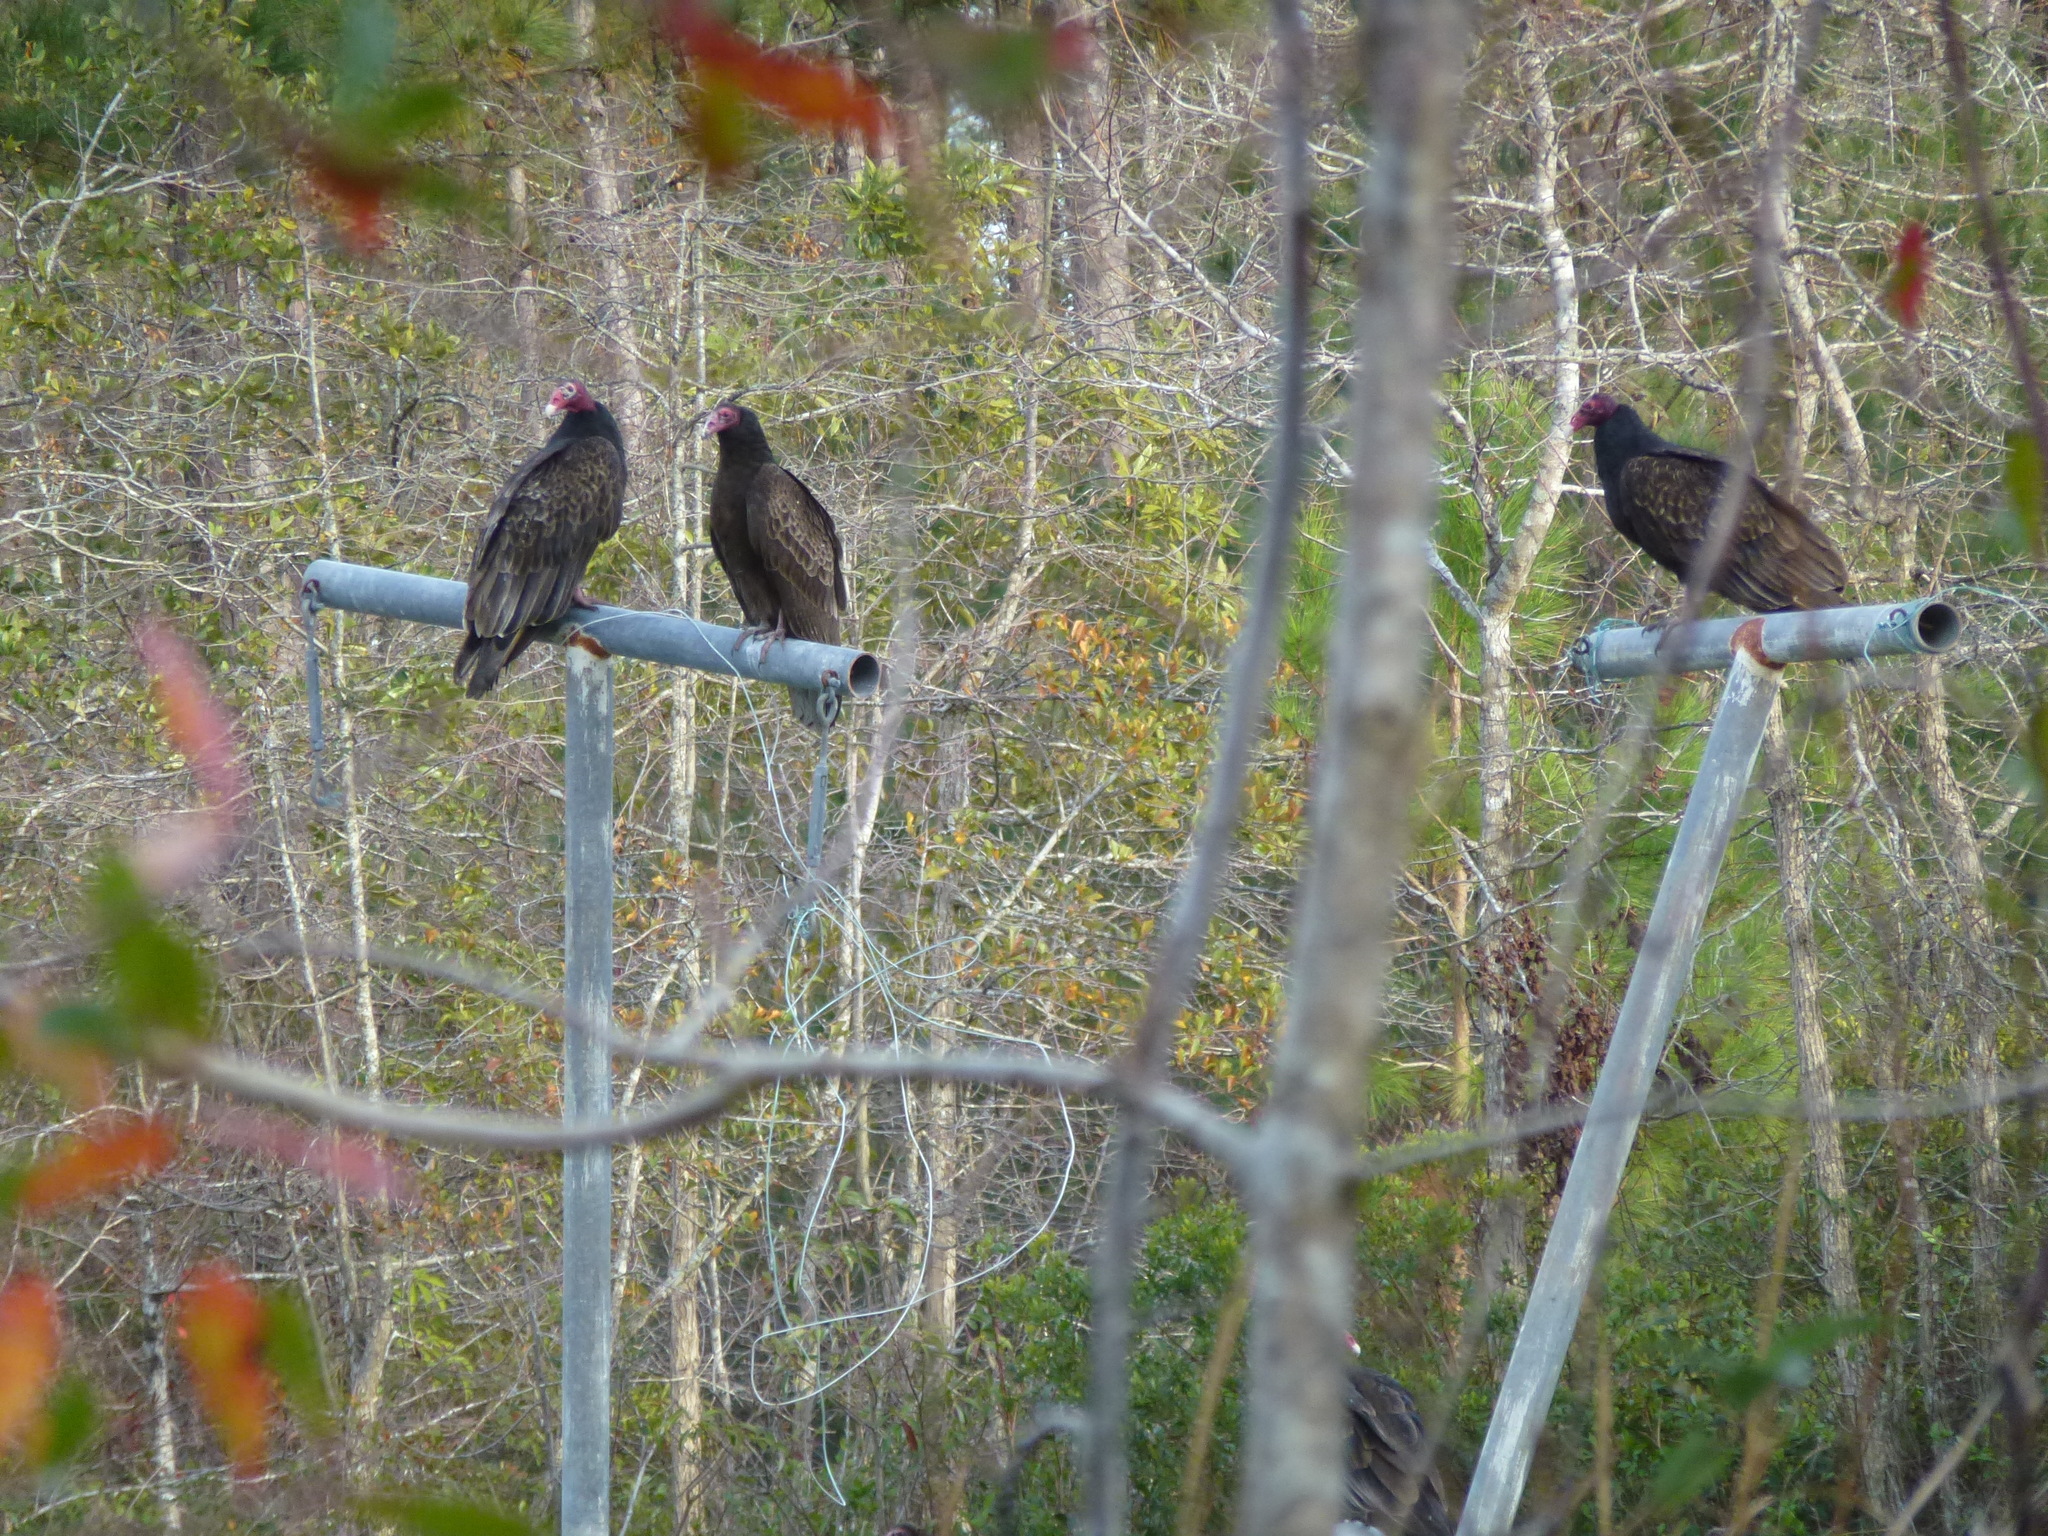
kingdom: Animalia
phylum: Chordata
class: Aves
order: Accipitriformes
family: Cathartidae
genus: Cathartes
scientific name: Cathartes aura
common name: Turkey vulture
